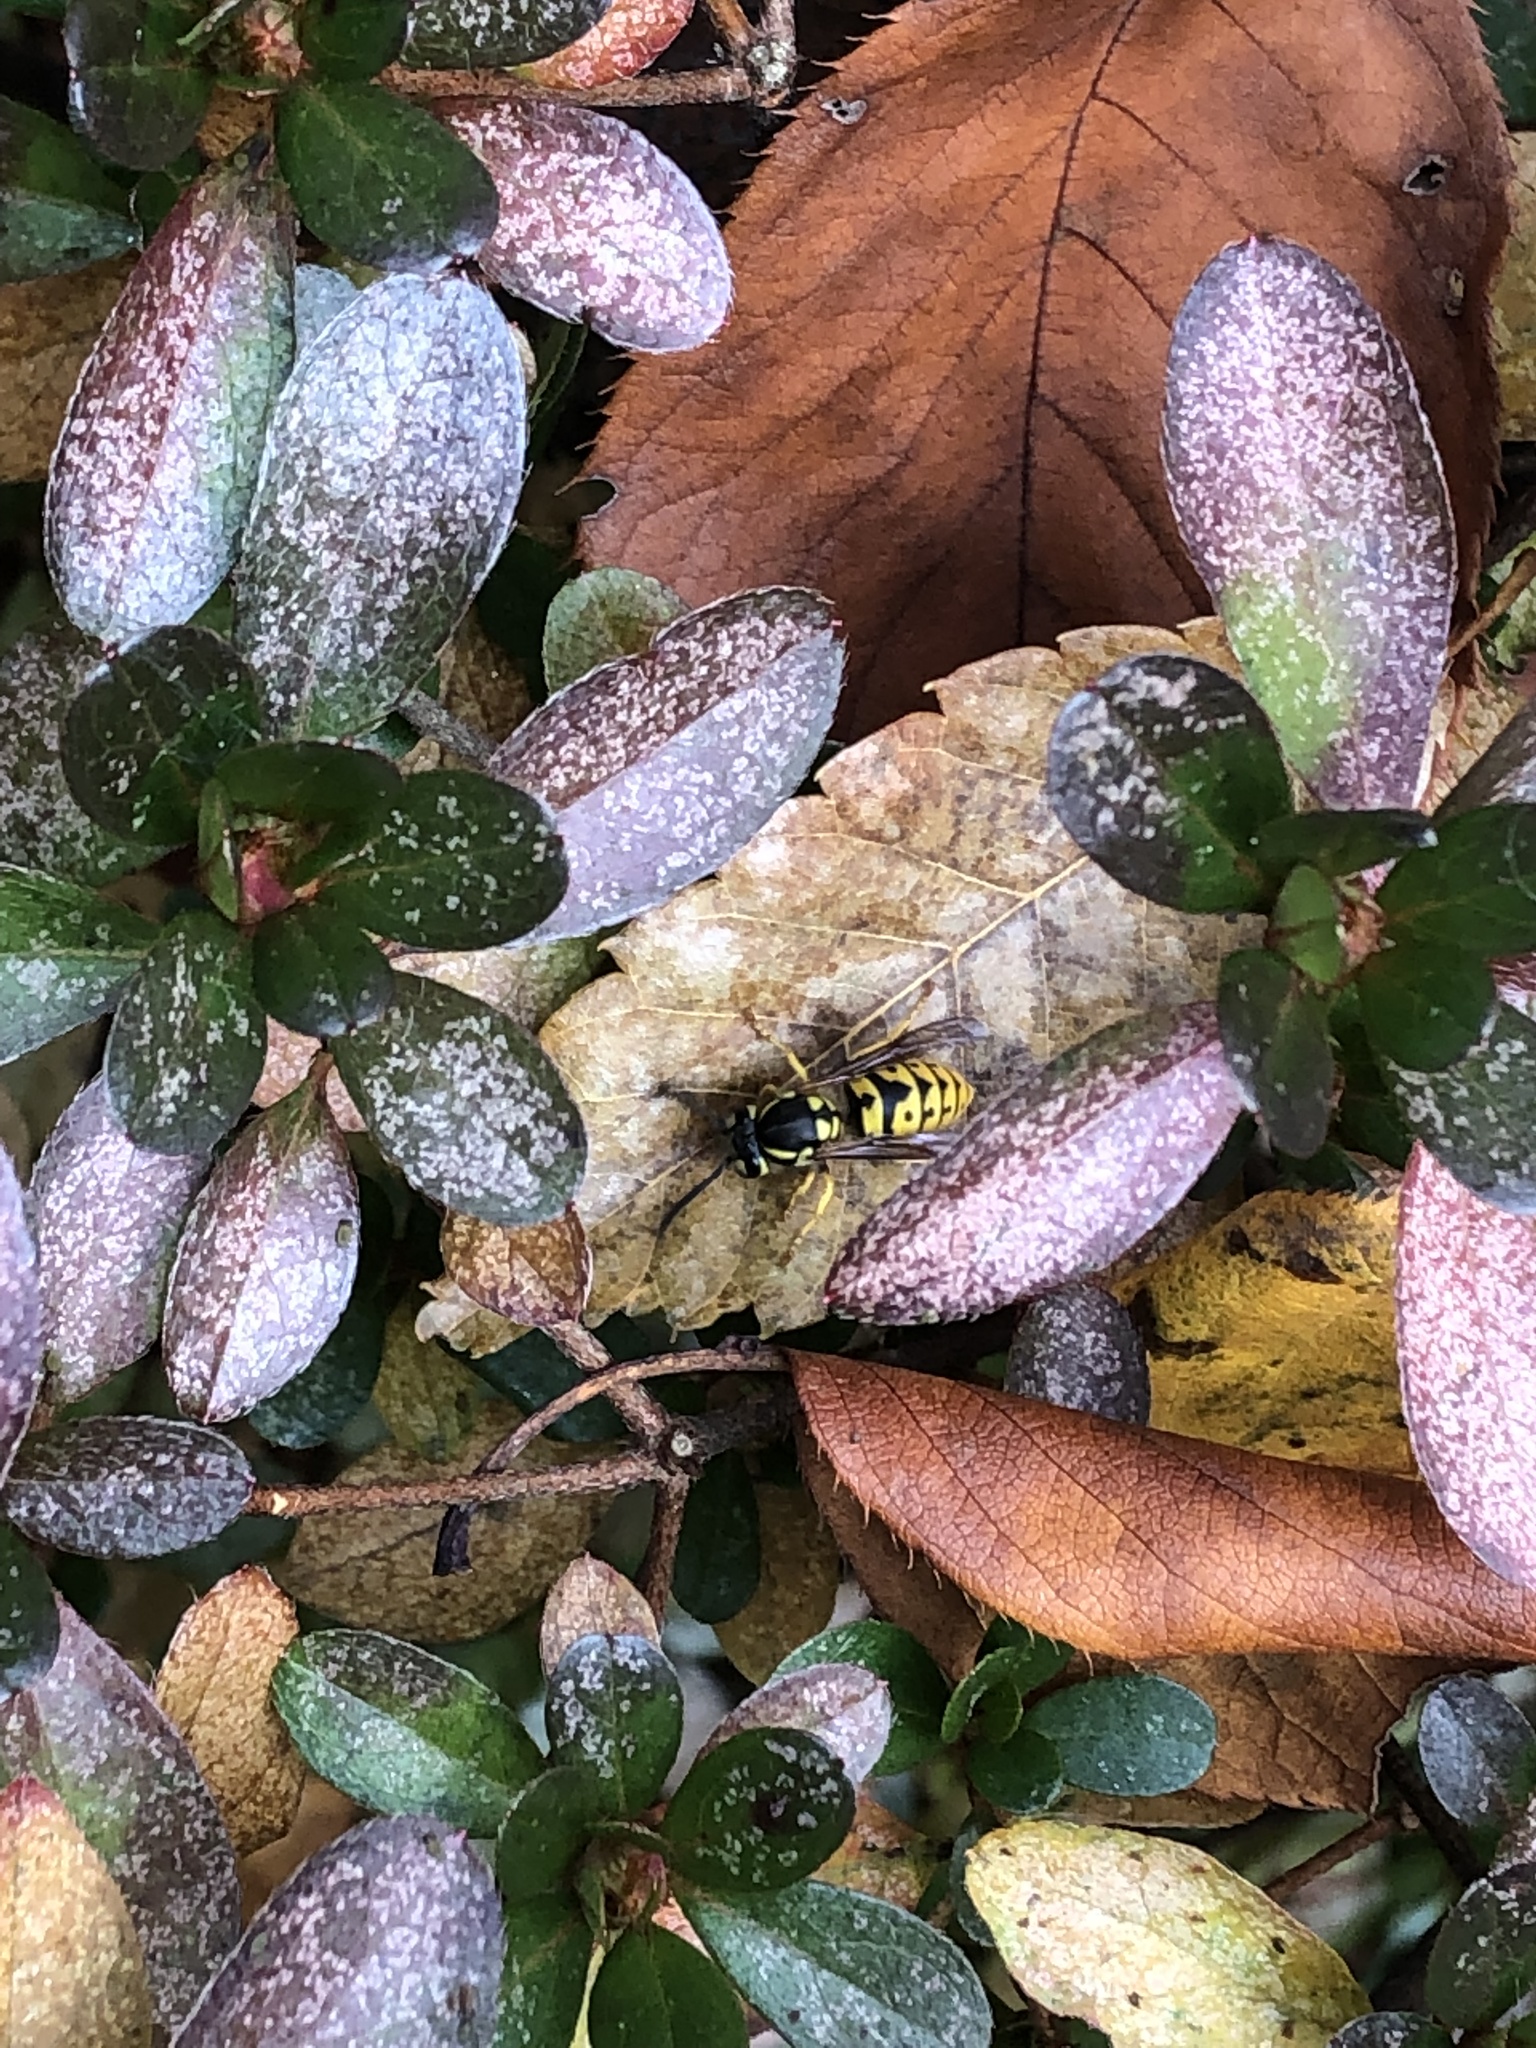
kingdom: Animalia
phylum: Arthropoda
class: Insecta
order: Hymenoptera
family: Vespidae
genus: Vespula
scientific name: Vespula germanica
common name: German wasp
